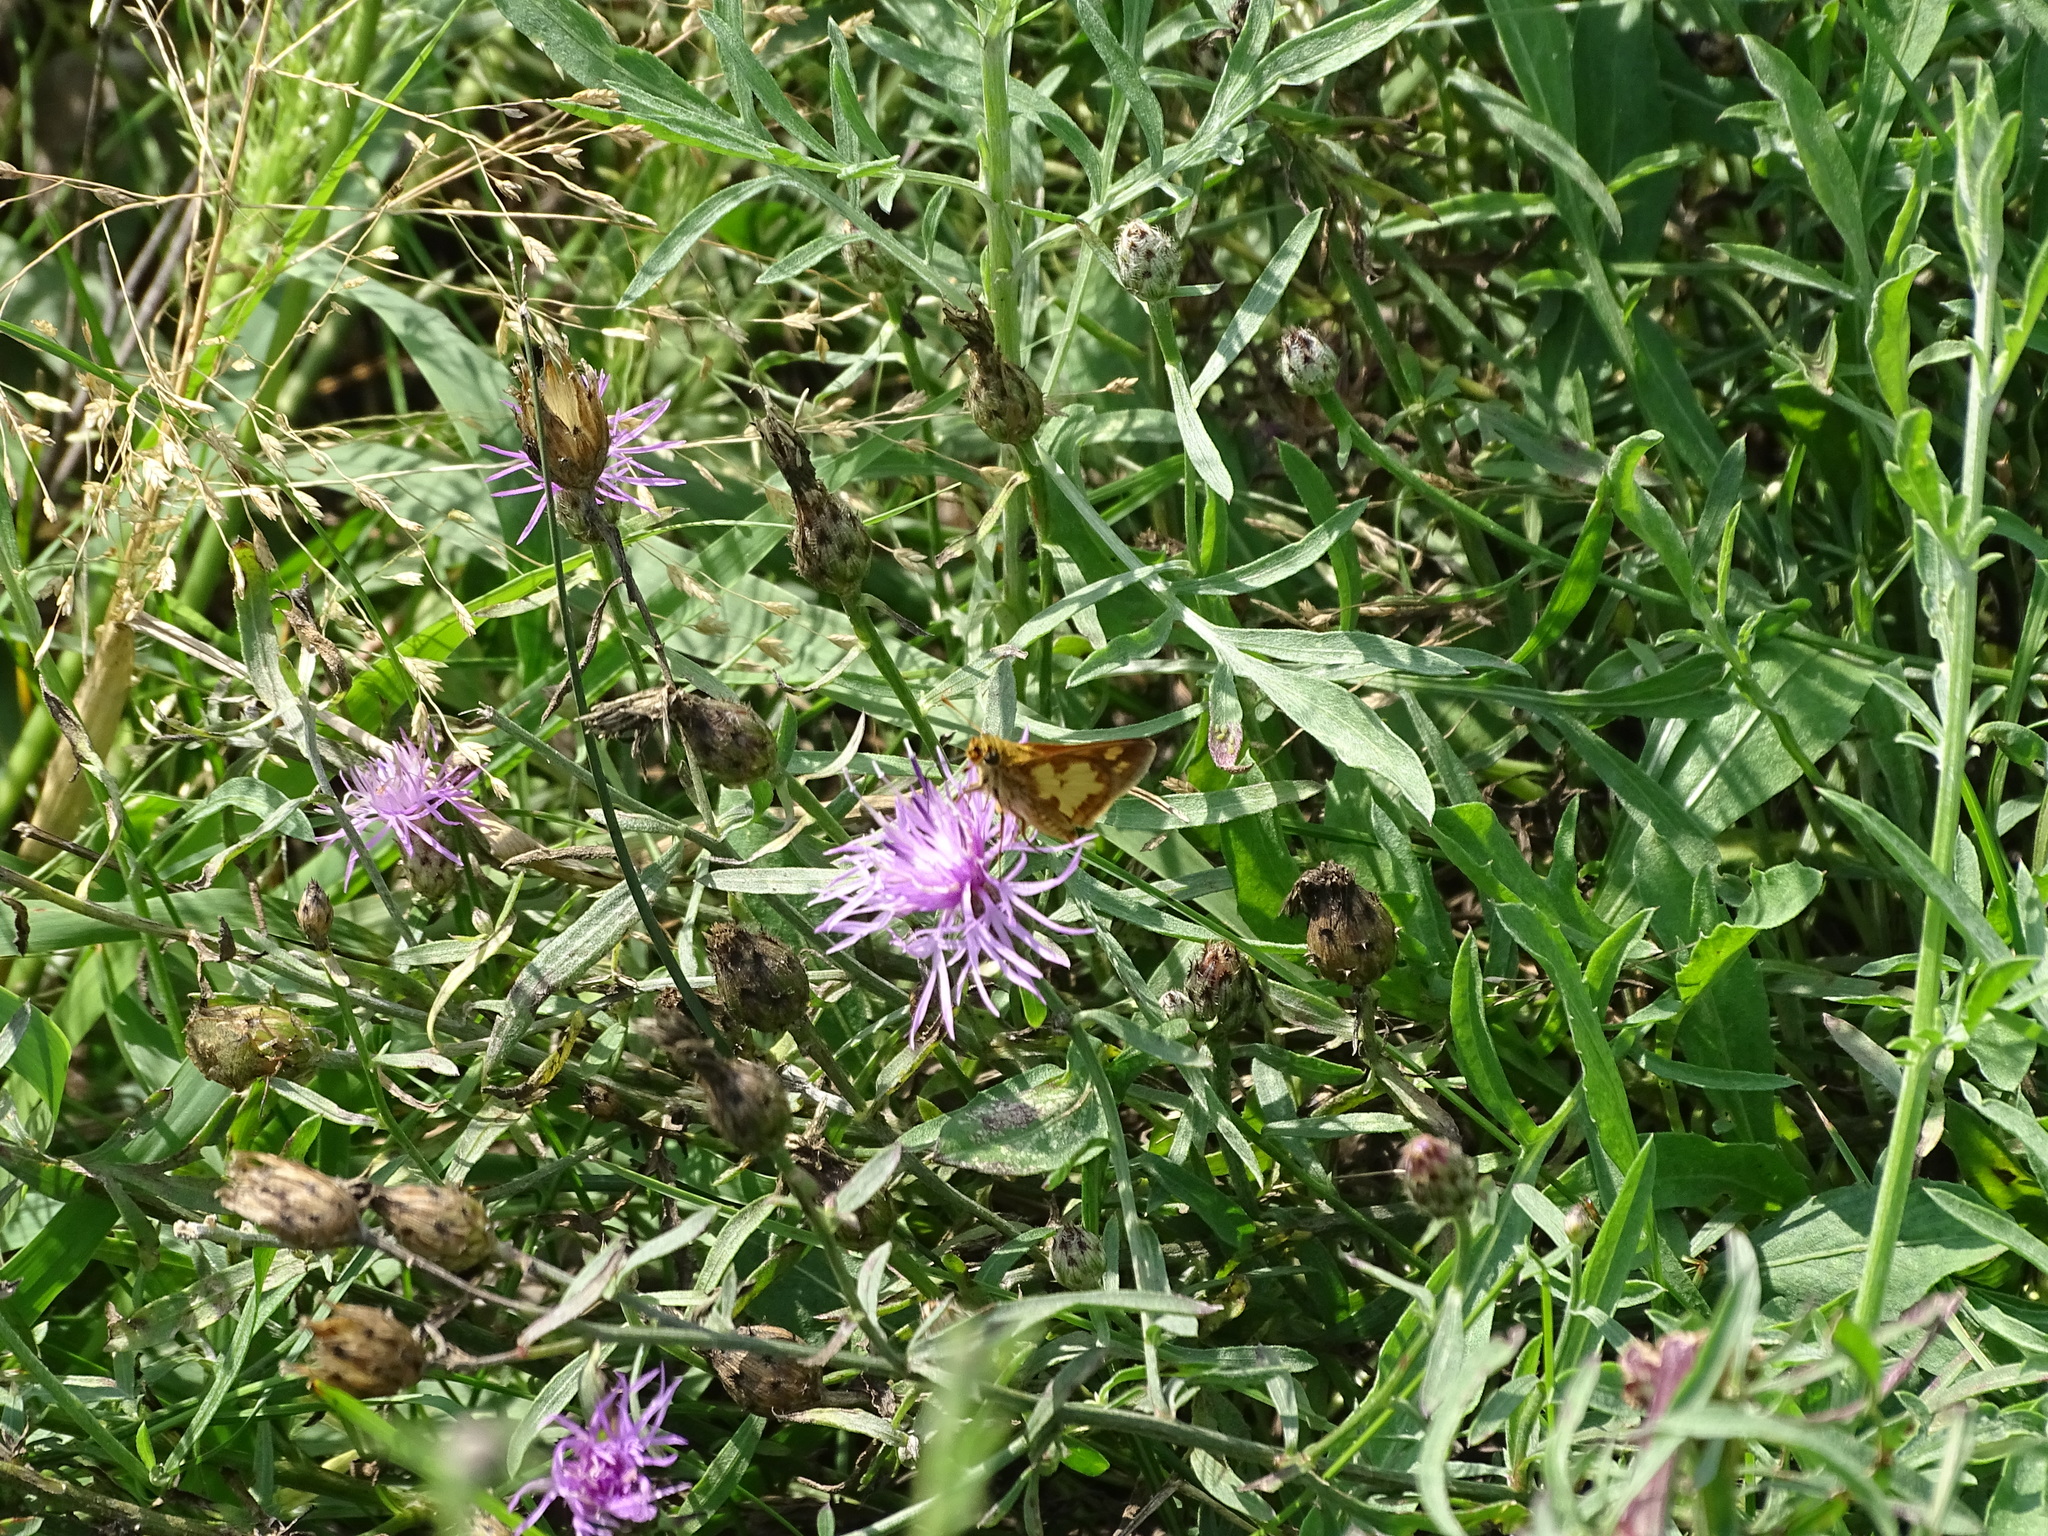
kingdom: Animalia
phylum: Arthropoda
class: Insecta
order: Lepidoptera
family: Hesperiidae
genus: Polites
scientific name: Polites coras
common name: Peck's skipper
